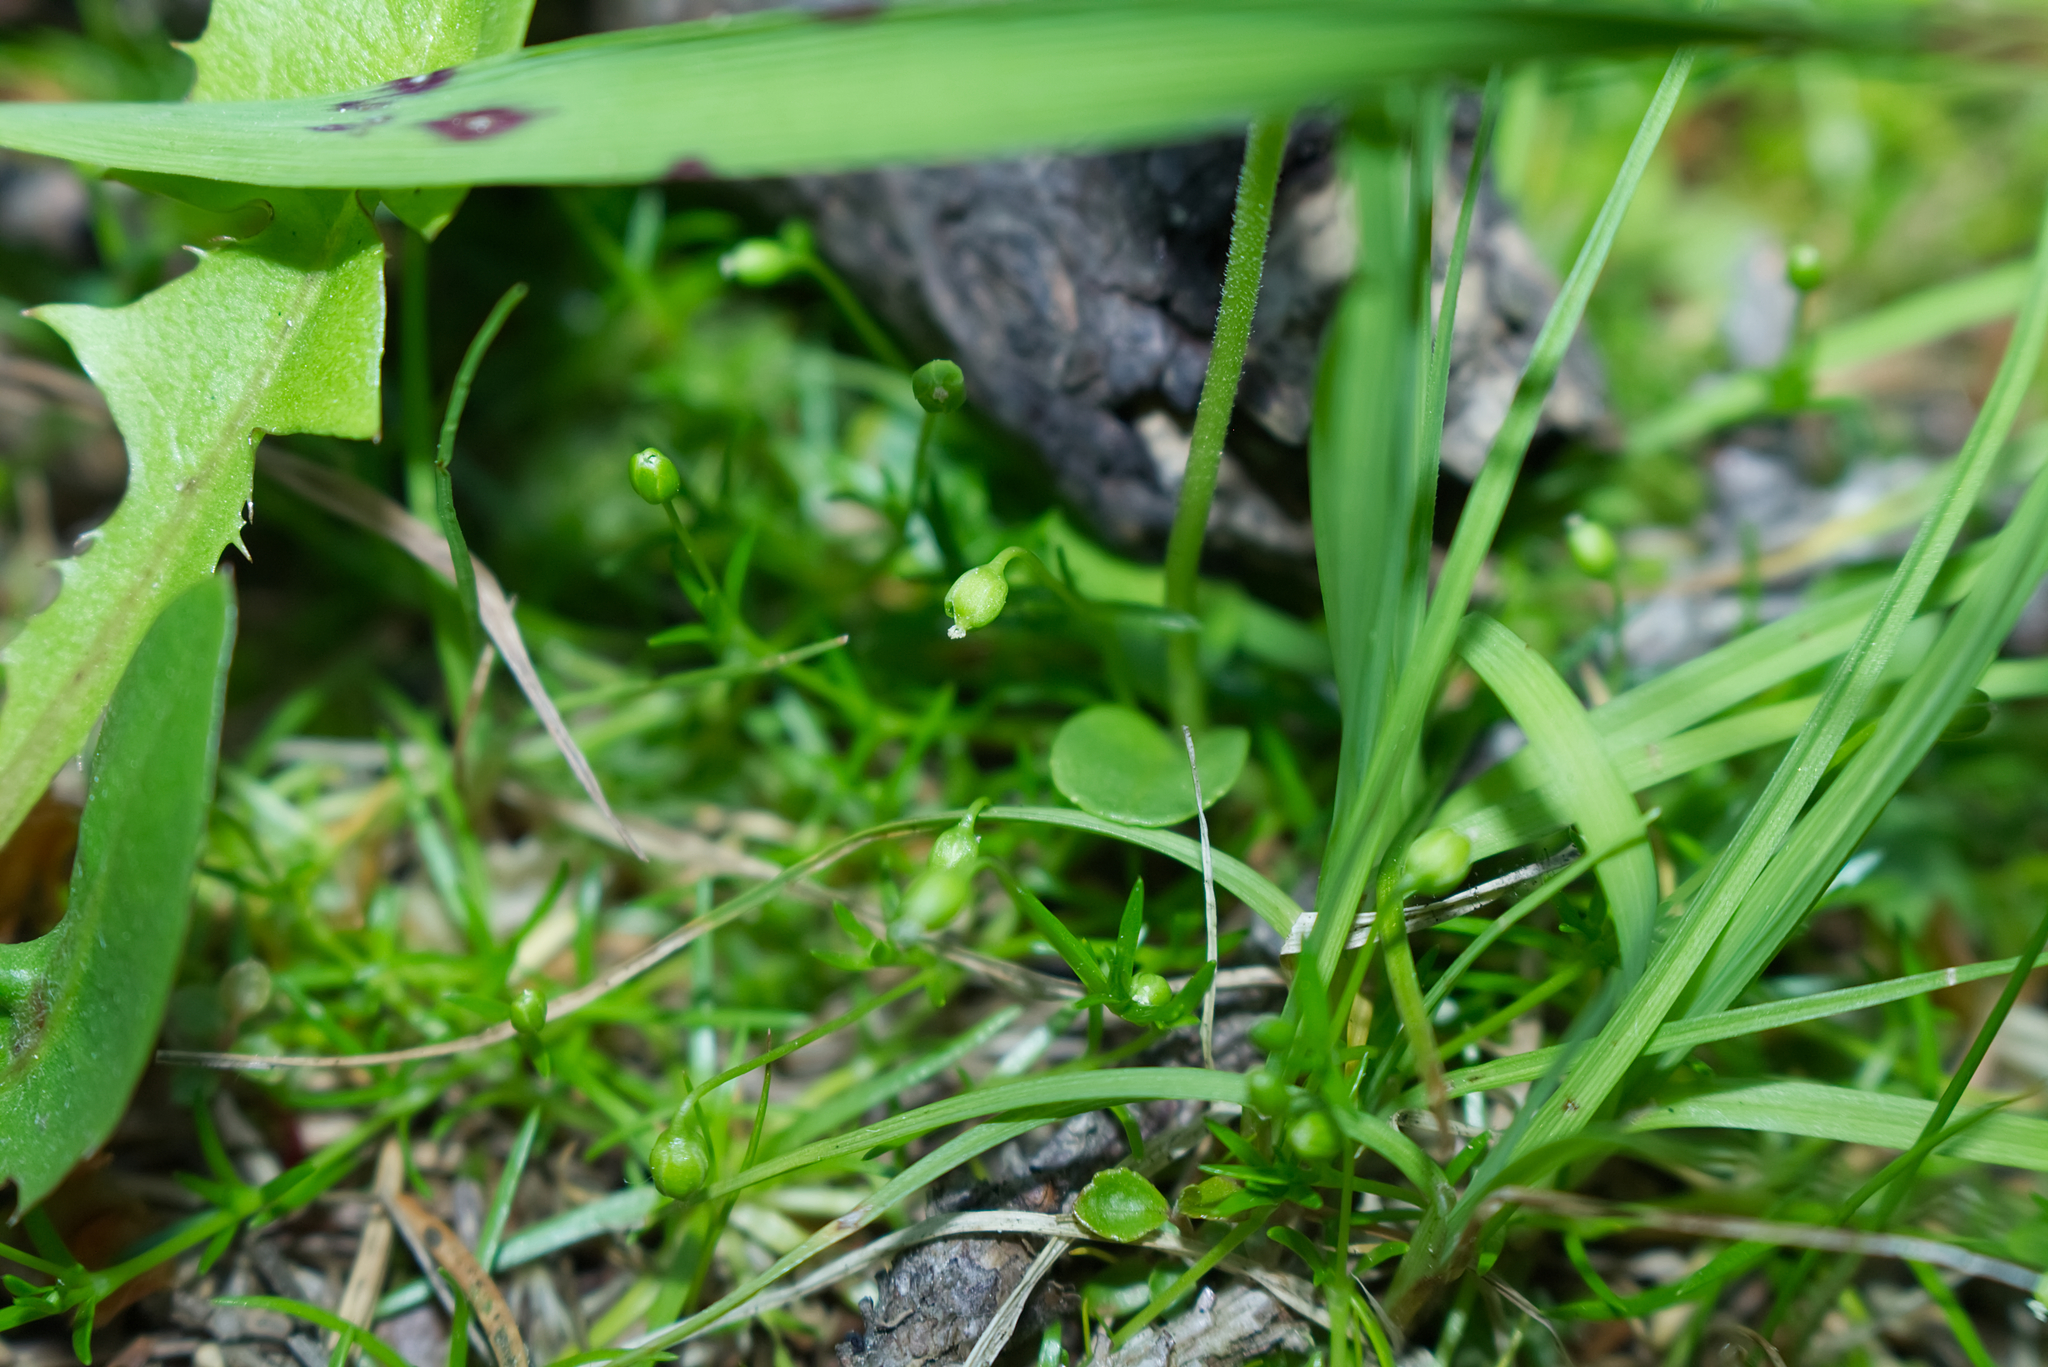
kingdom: Plantae
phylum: Tracheophyta
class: Magnoliopsida
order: Caryophyllales
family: Caryophyllaceae
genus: Sagina
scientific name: Sagina procumbens
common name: Procumbent pearlwort
